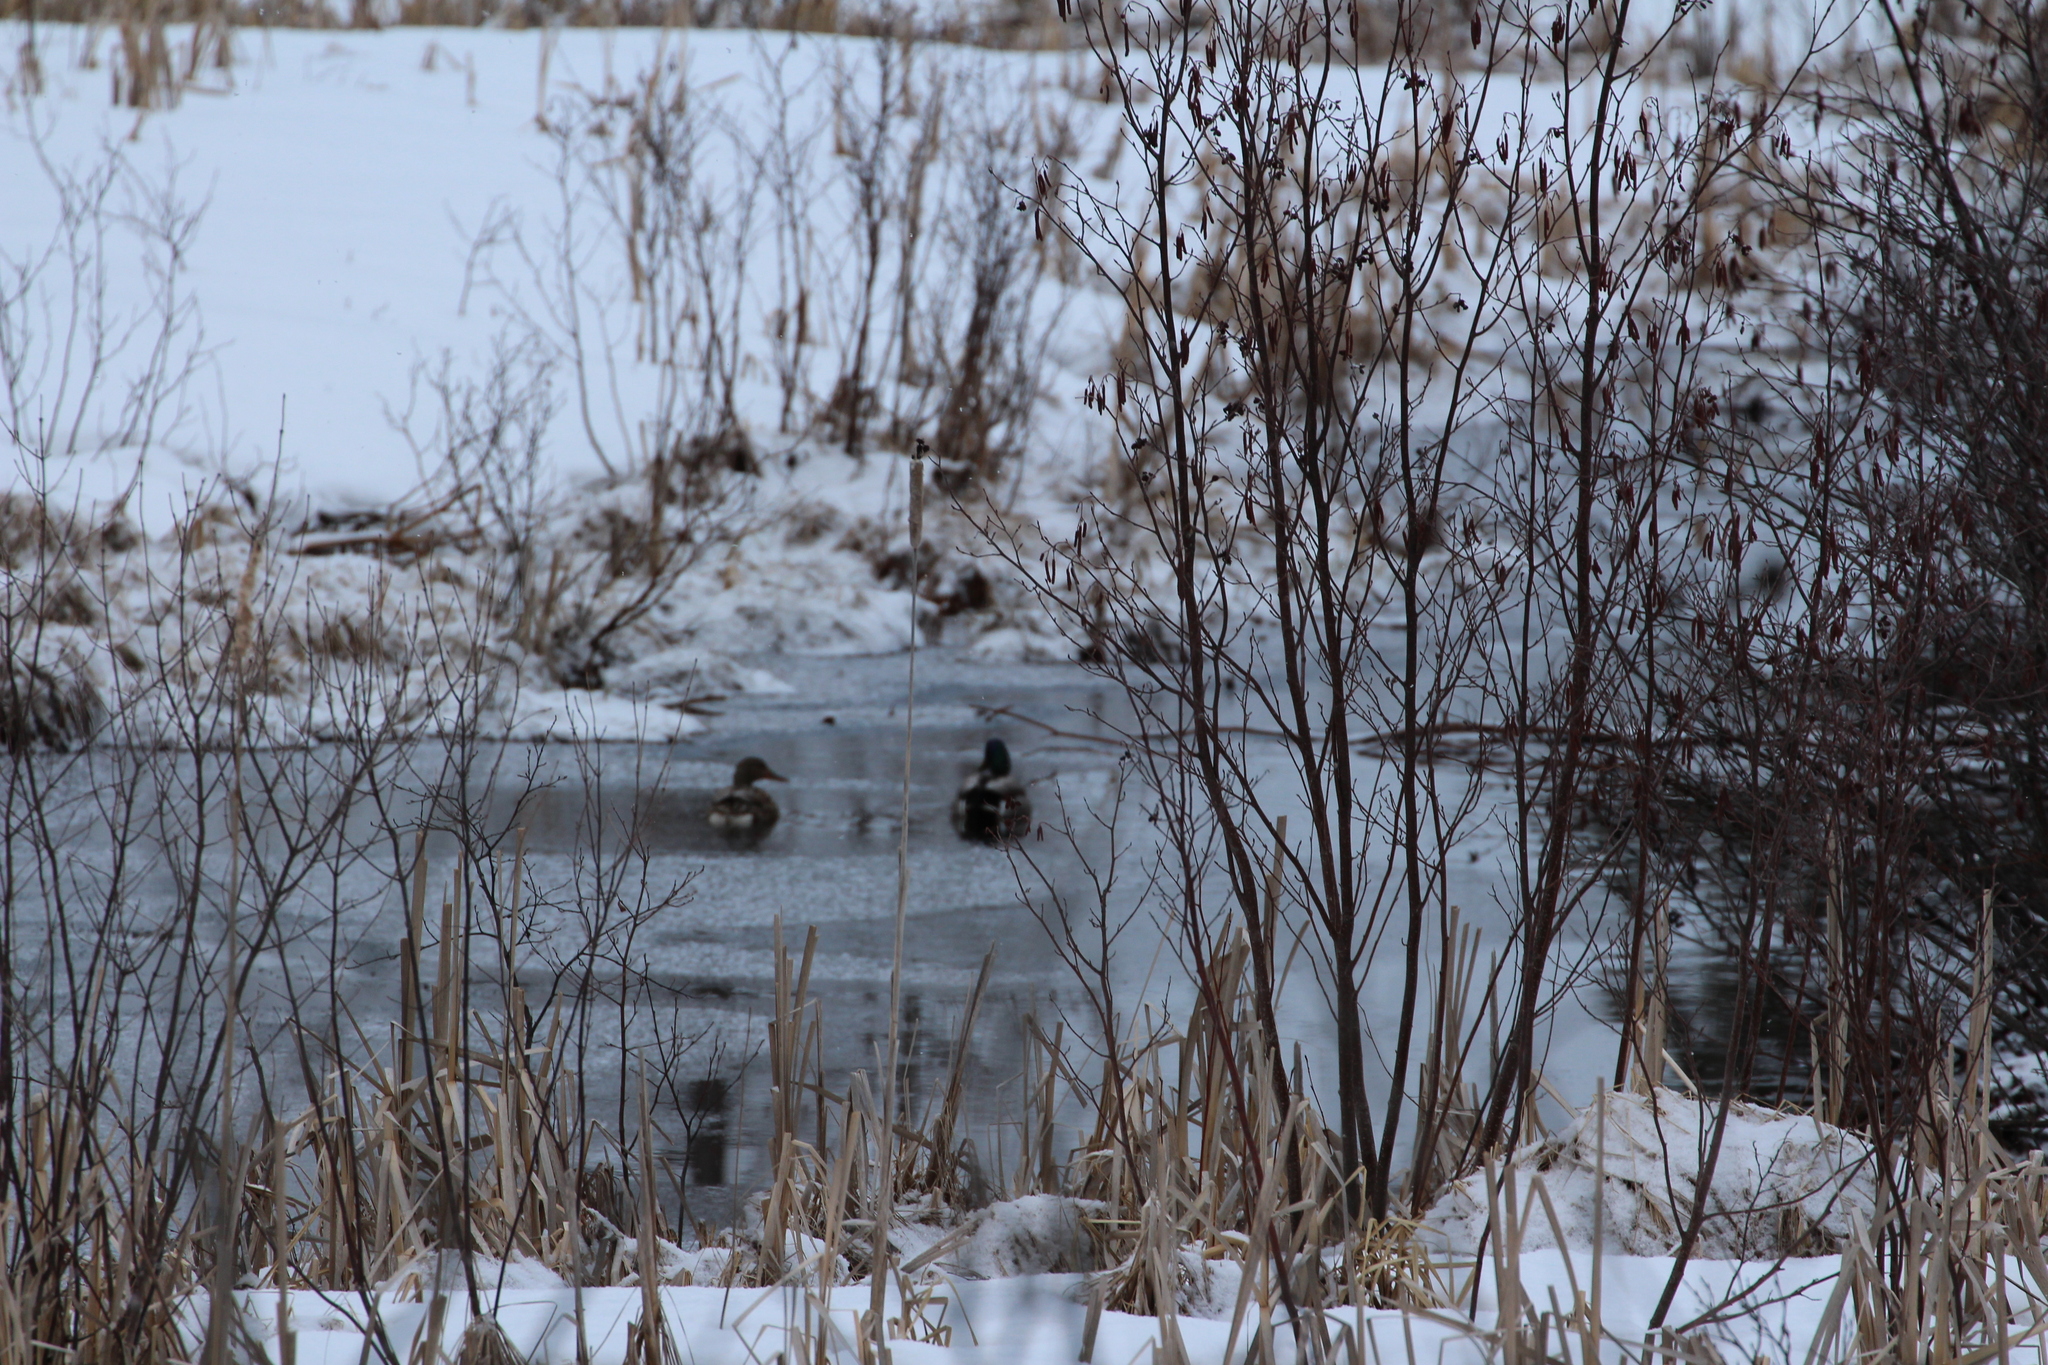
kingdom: Animalia
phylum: Chordata
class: Aves
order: Anseriformes
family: Anatidae
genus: Anas
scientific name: Anas platyrhynchos
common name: Mallard
